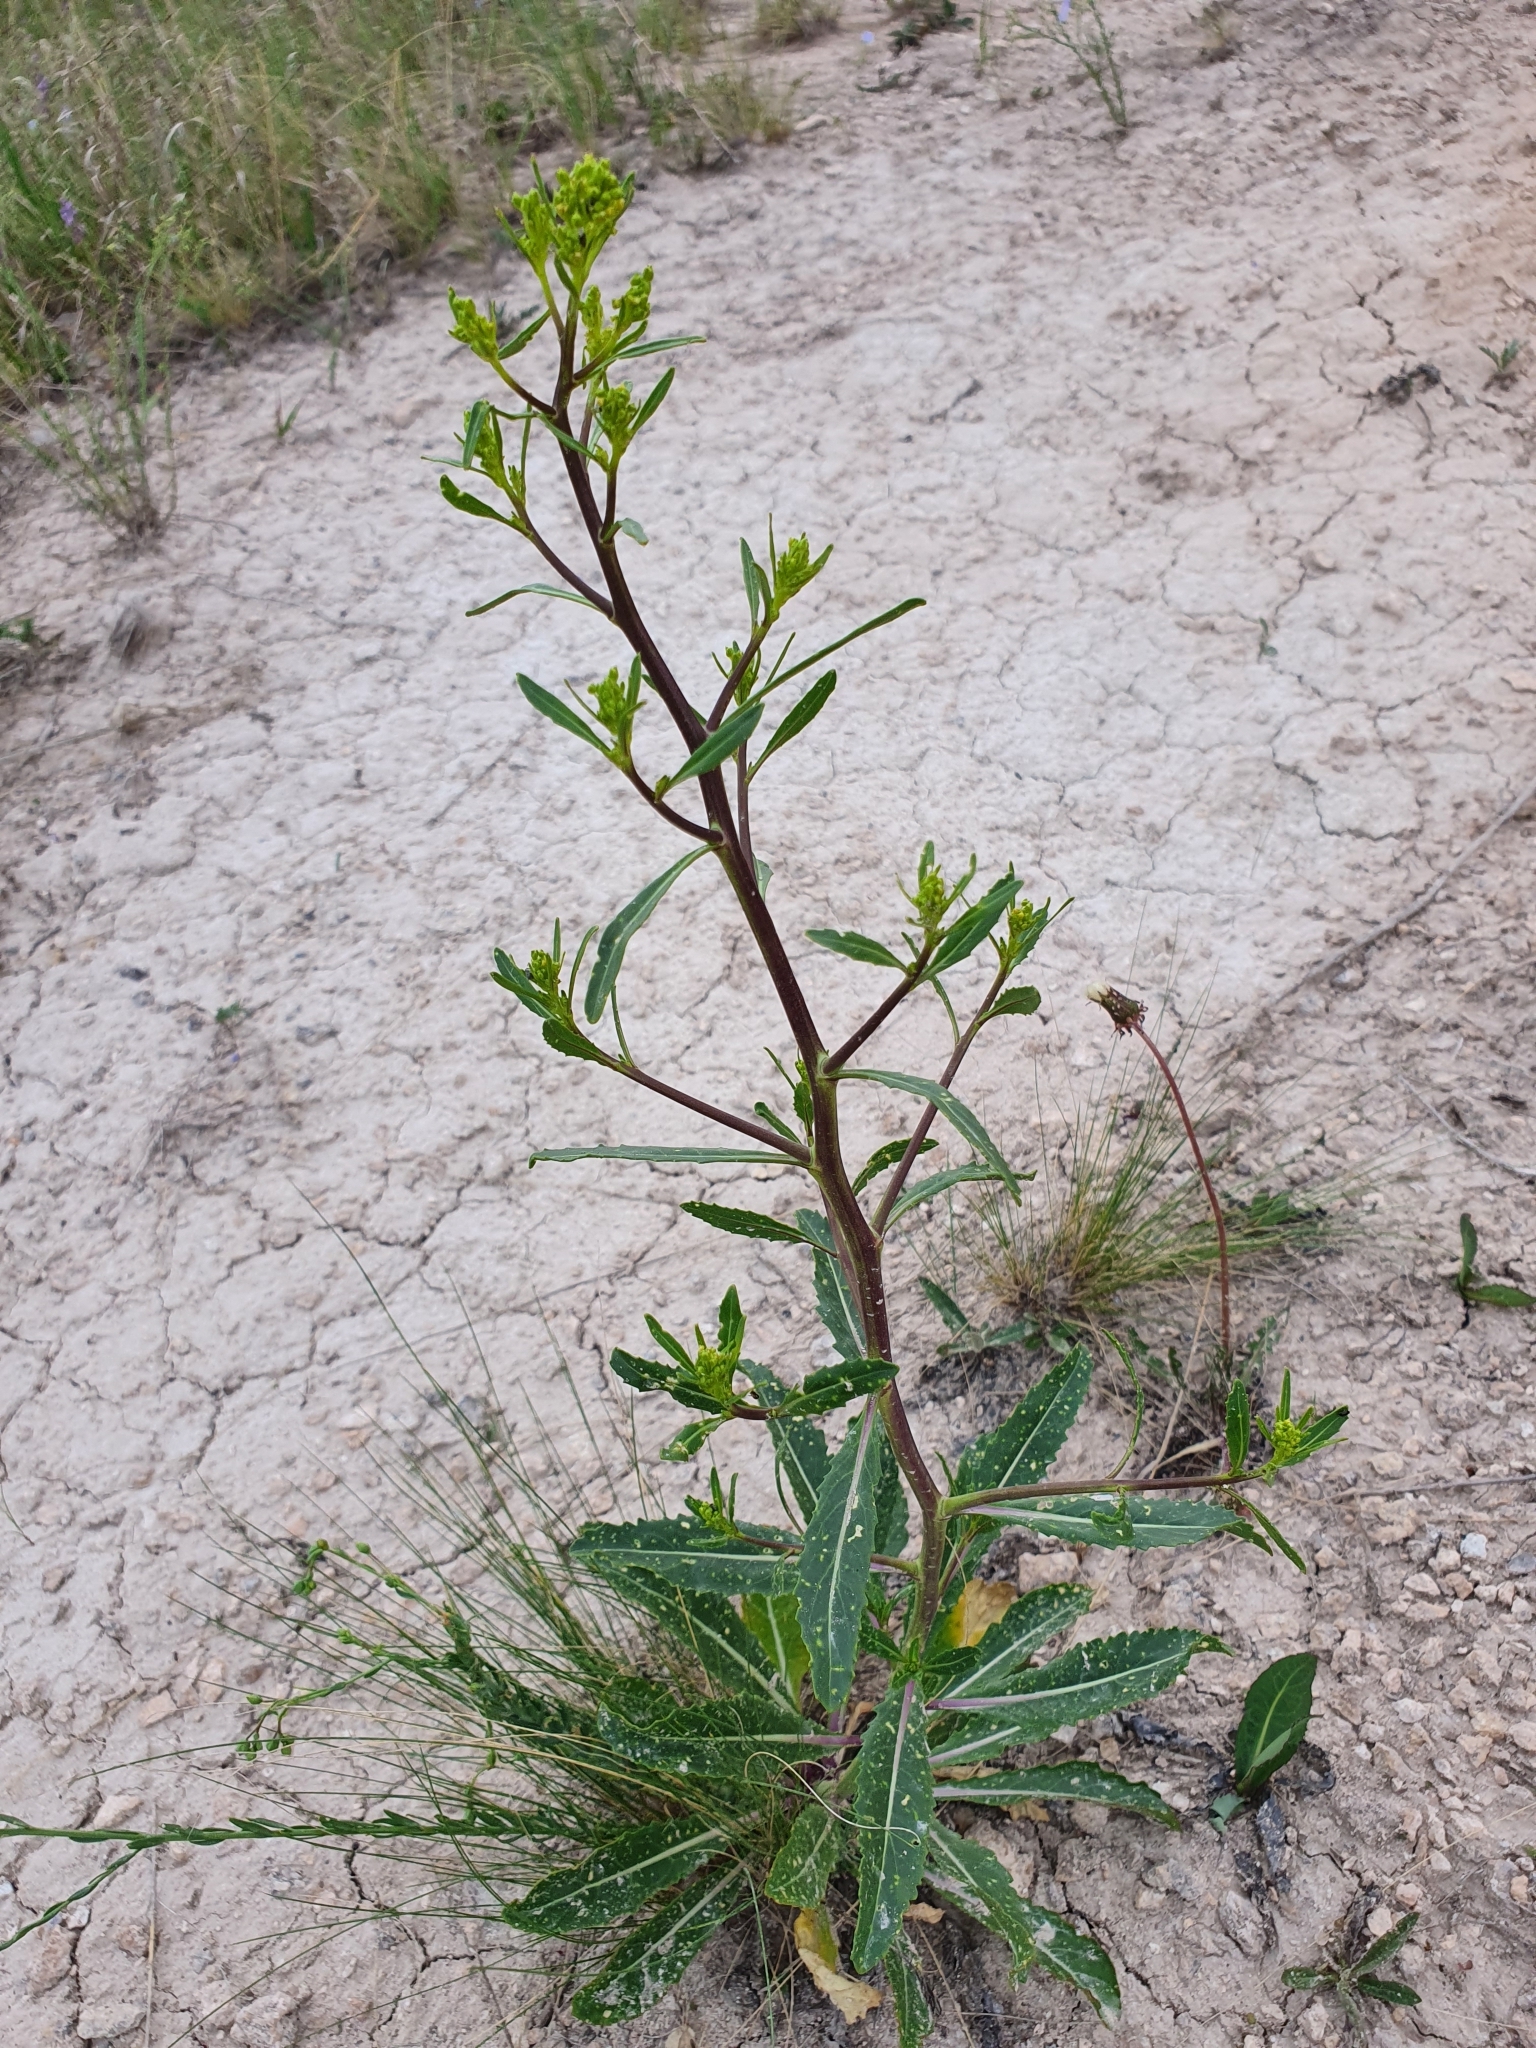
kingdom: Plantae
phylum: Tracheophyta
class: Magnoliopsida
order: Brassicales
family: Brassicaceae
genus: Brassica
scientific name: Brassica elongata
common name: Long-stalked rape
